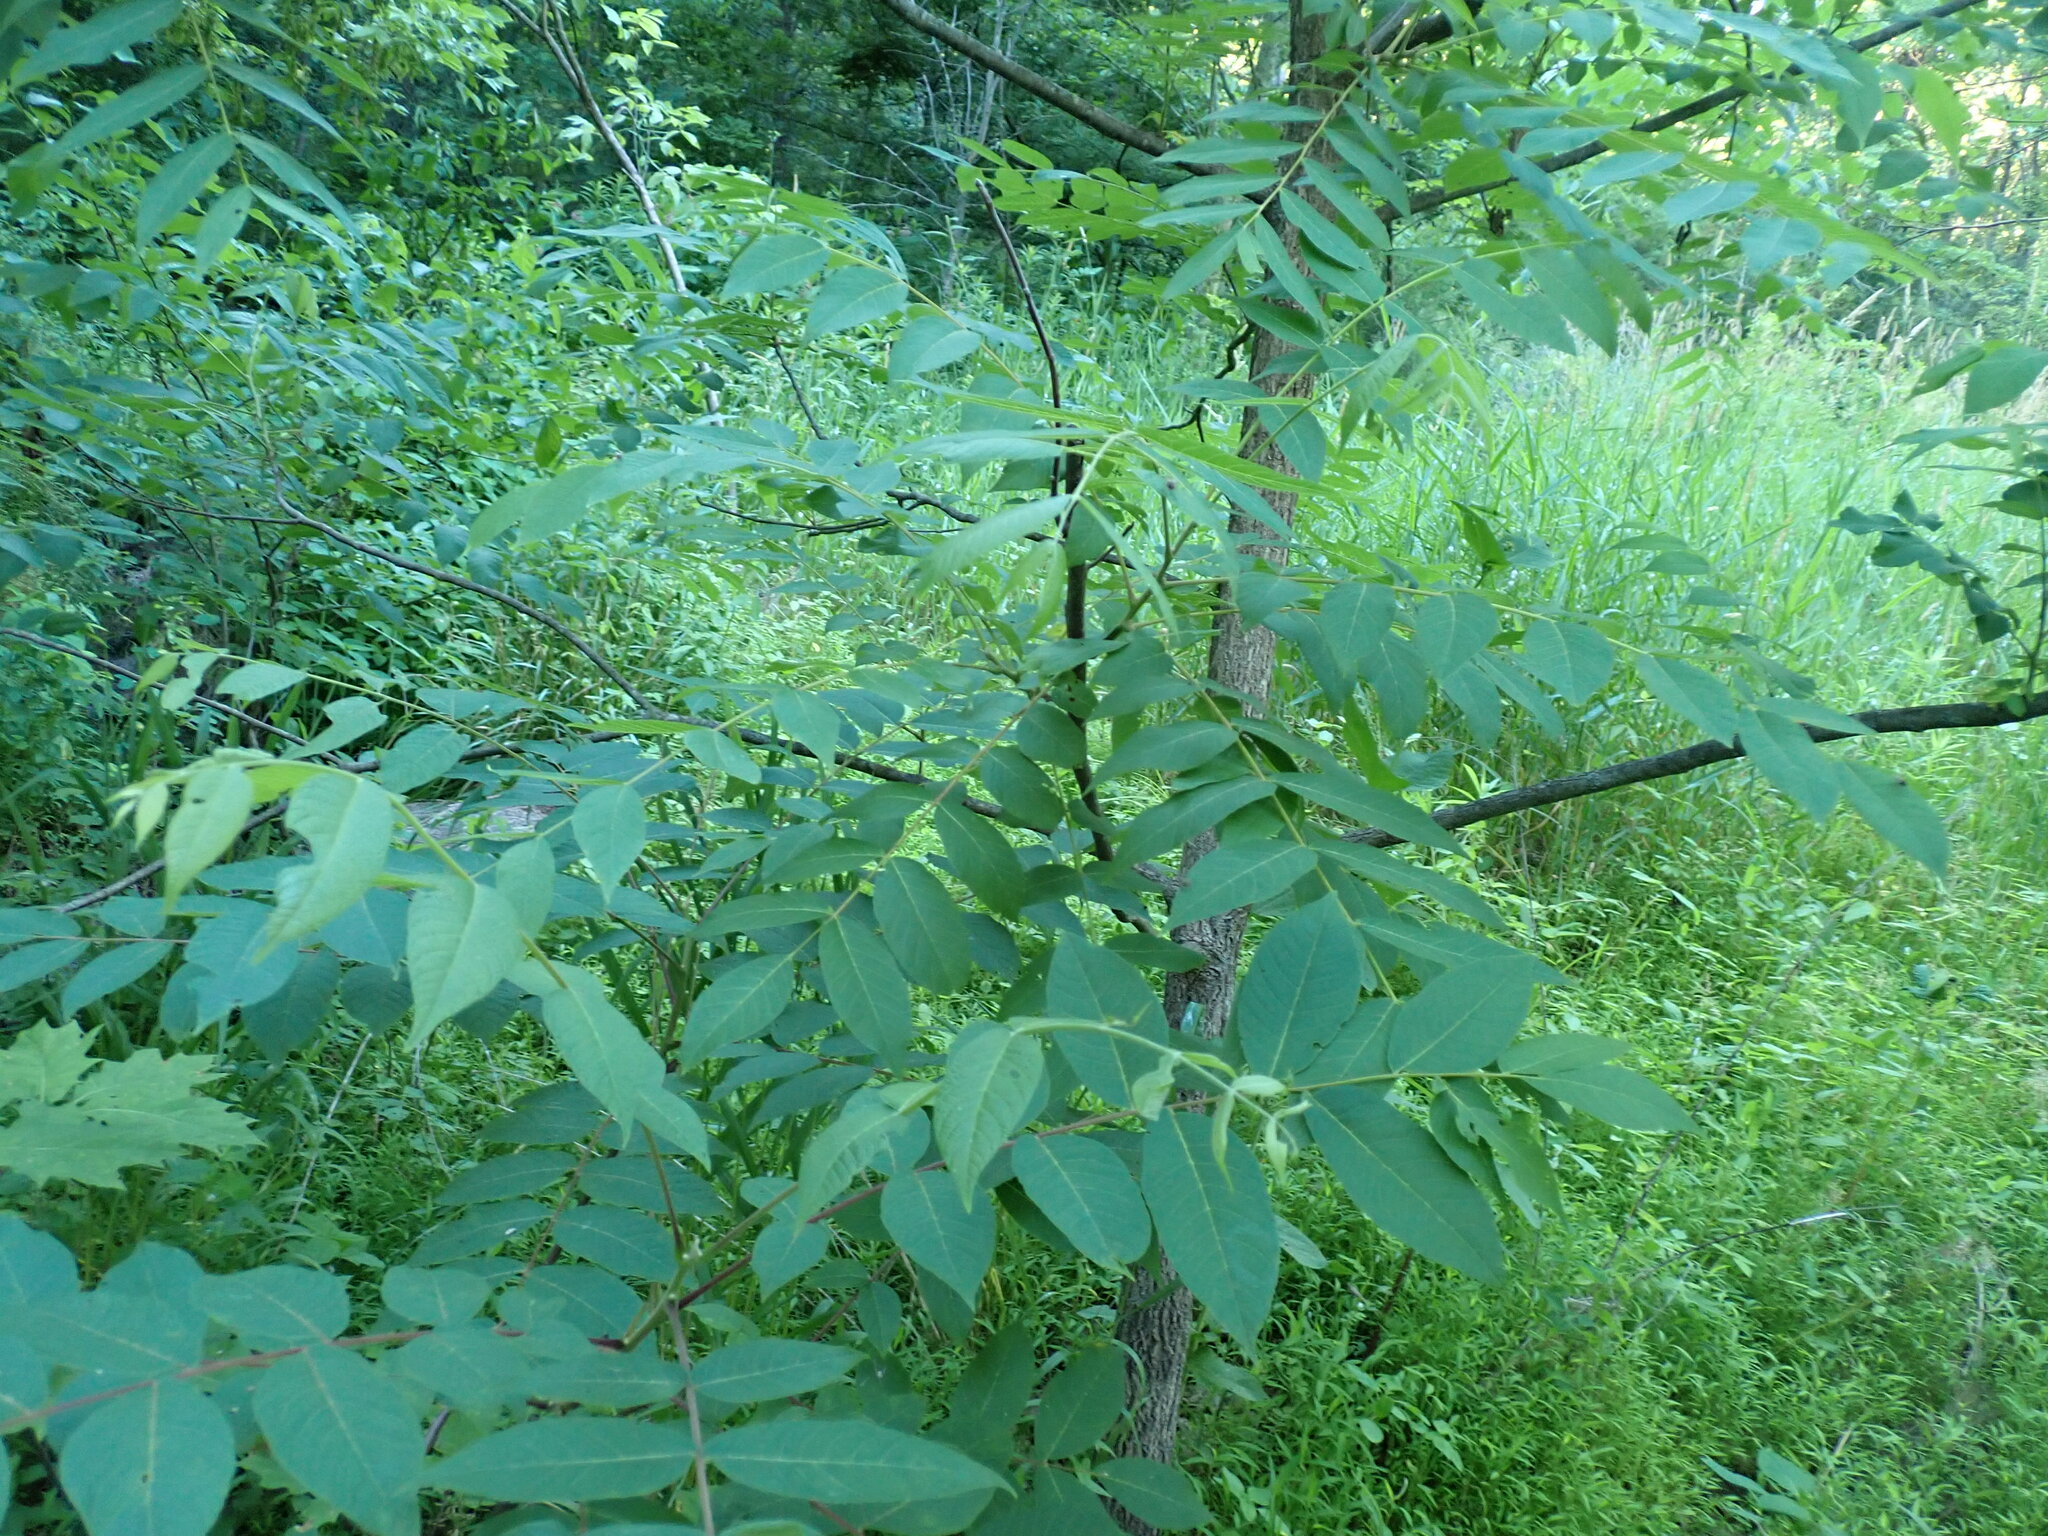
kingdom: Plantae
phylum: Tracheophyta
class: Magnoliopsida
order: Fagales
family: Juglandaceae
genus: Juglans
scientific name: Juglans nigra
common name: Black walnut
